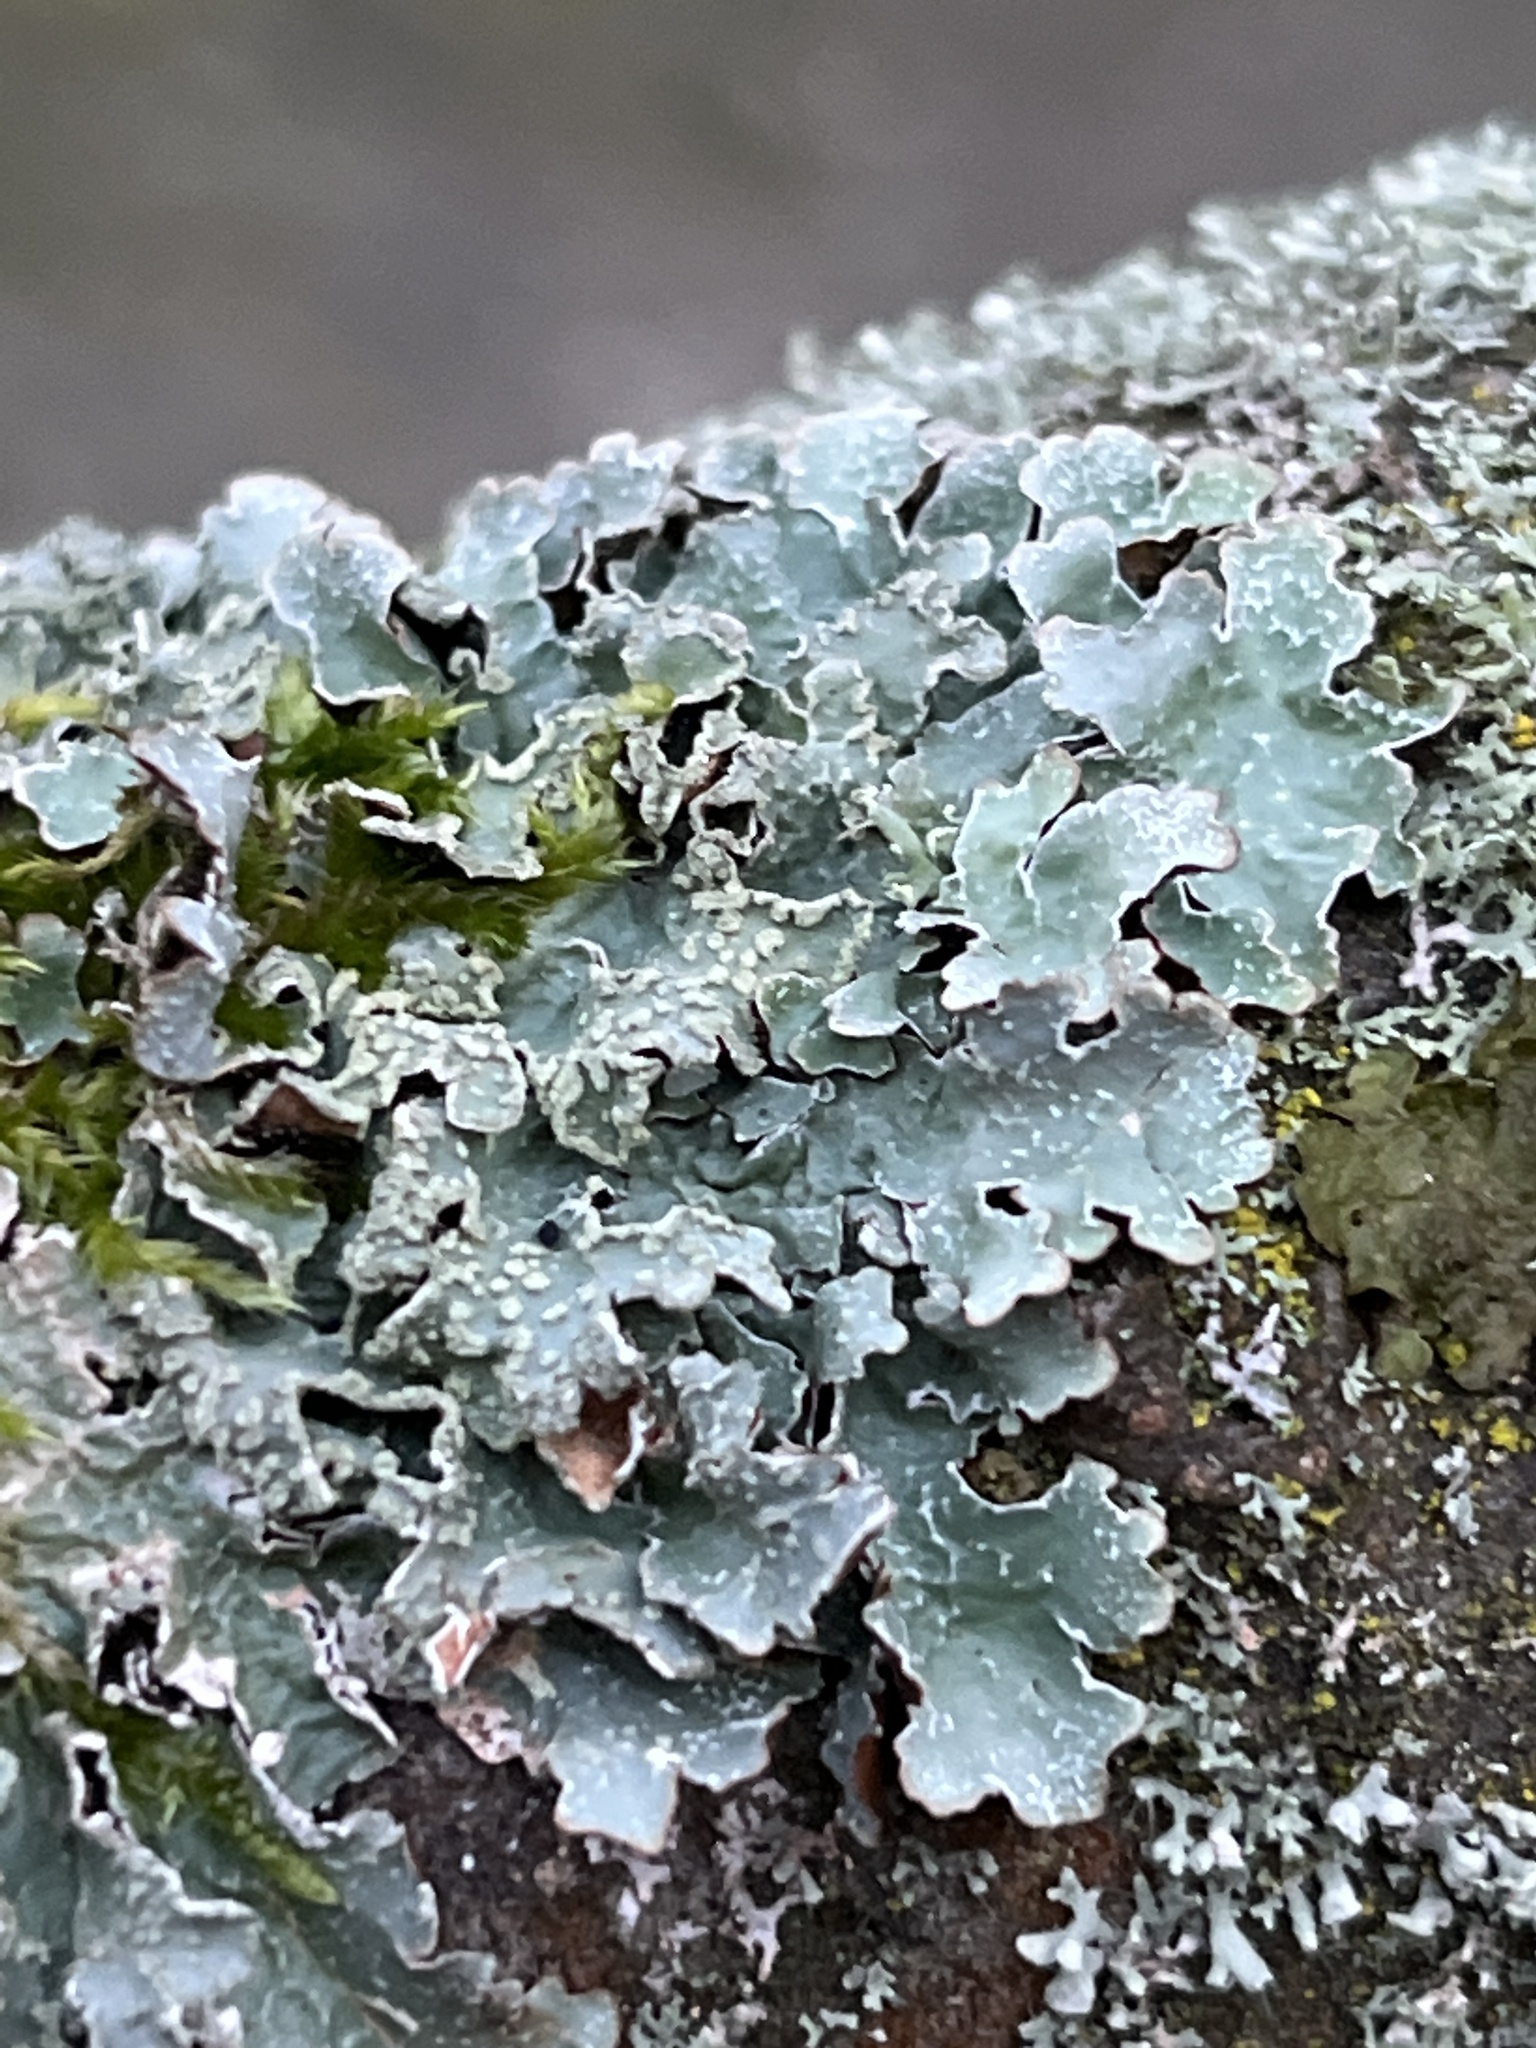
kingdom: Fungi
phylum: Ascomycota
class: Lecanoromycetes
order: Lecanorales
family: Parmeliaceae
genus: Parmelia
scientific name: Parmelia sulcata
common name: Netted shield lichen
